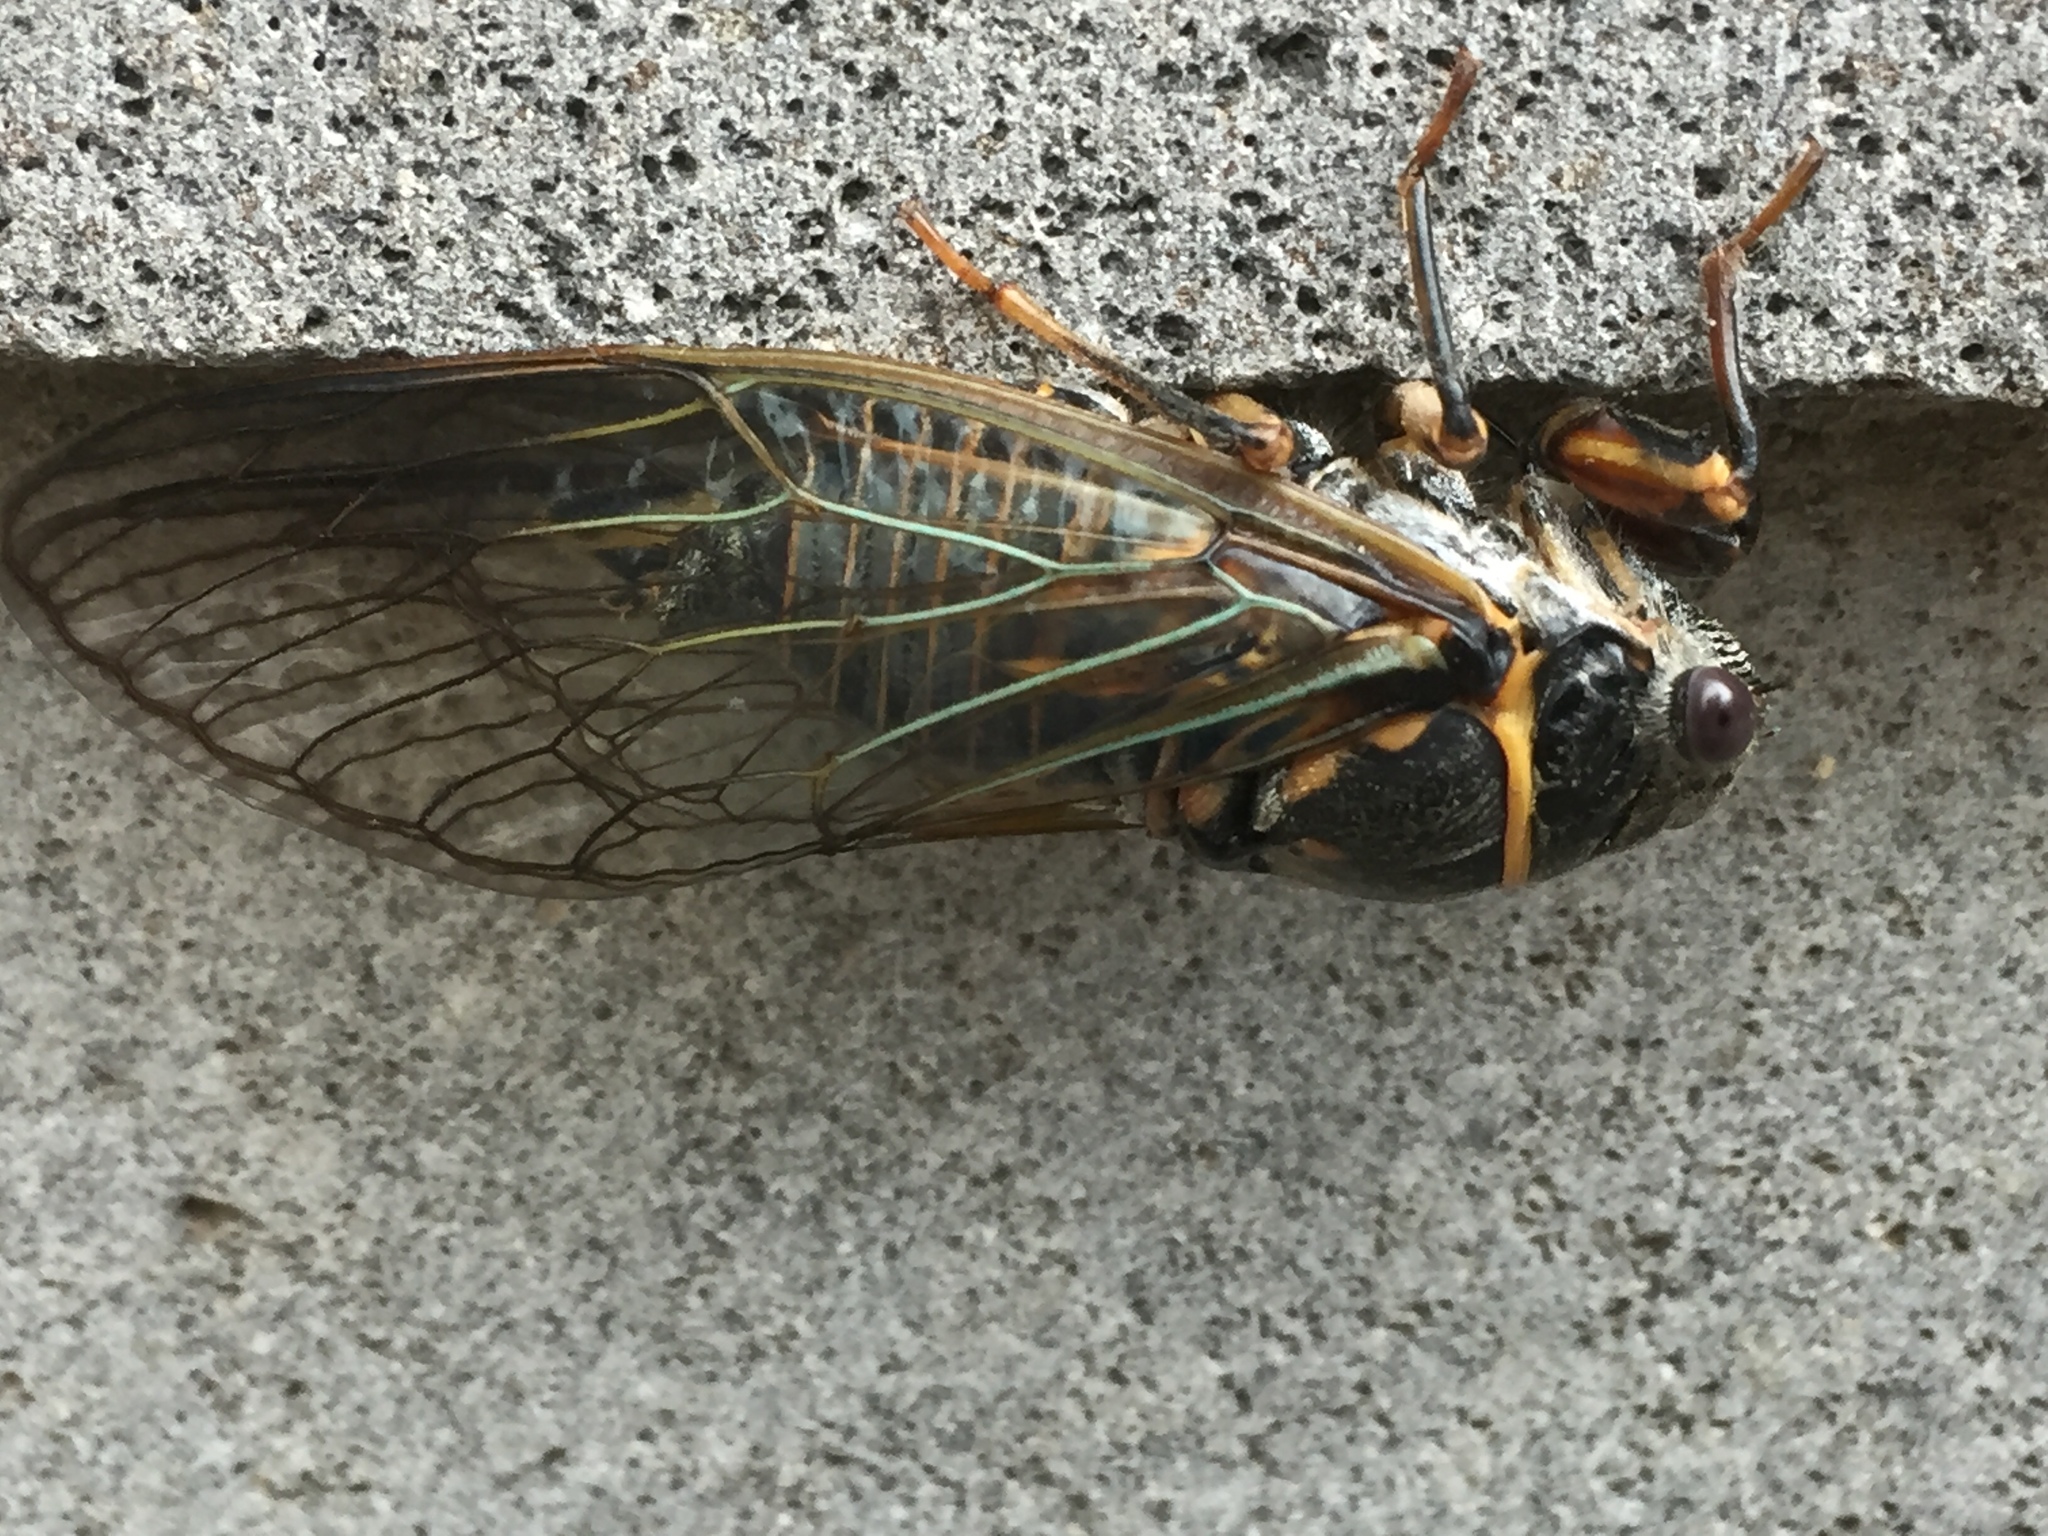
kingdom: Animalia
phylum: Arthropoda
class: Insecta
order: Hemiptera
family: Cicadidae
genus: Tibicina
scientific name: Tibicina steveni
